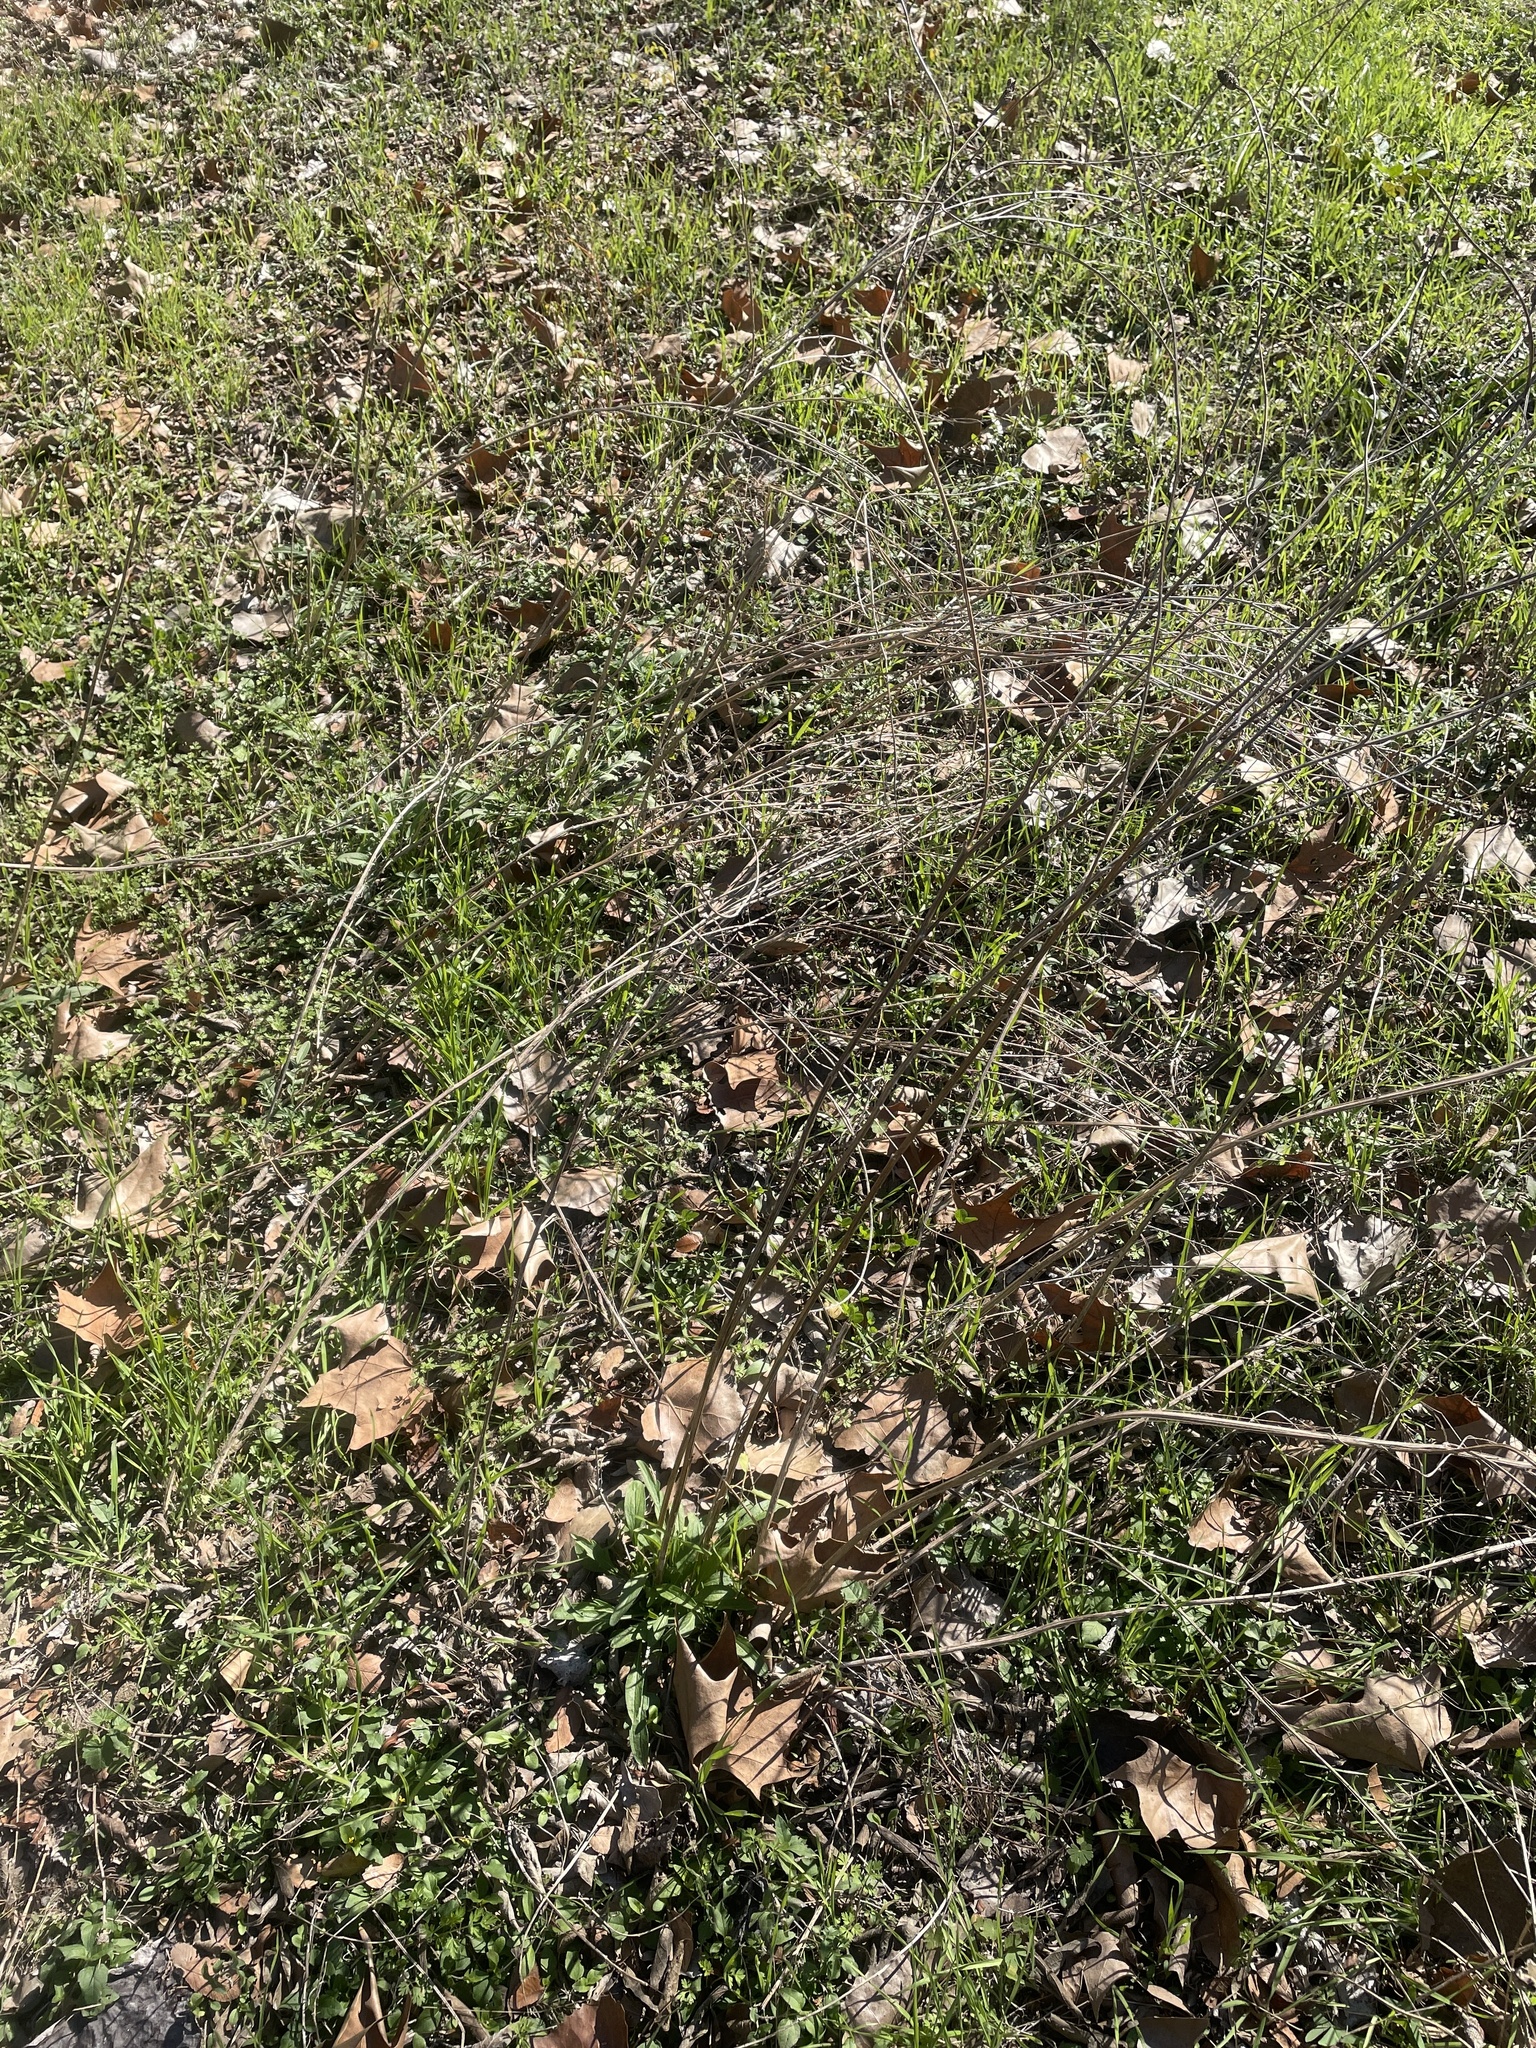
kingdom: Plantae
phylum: Tracheophyta
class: Magnoliopsida
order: Asterales
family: Asteraceae
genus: Ratibida
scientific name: Ratibida columnifera
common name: Prairie coneflower
